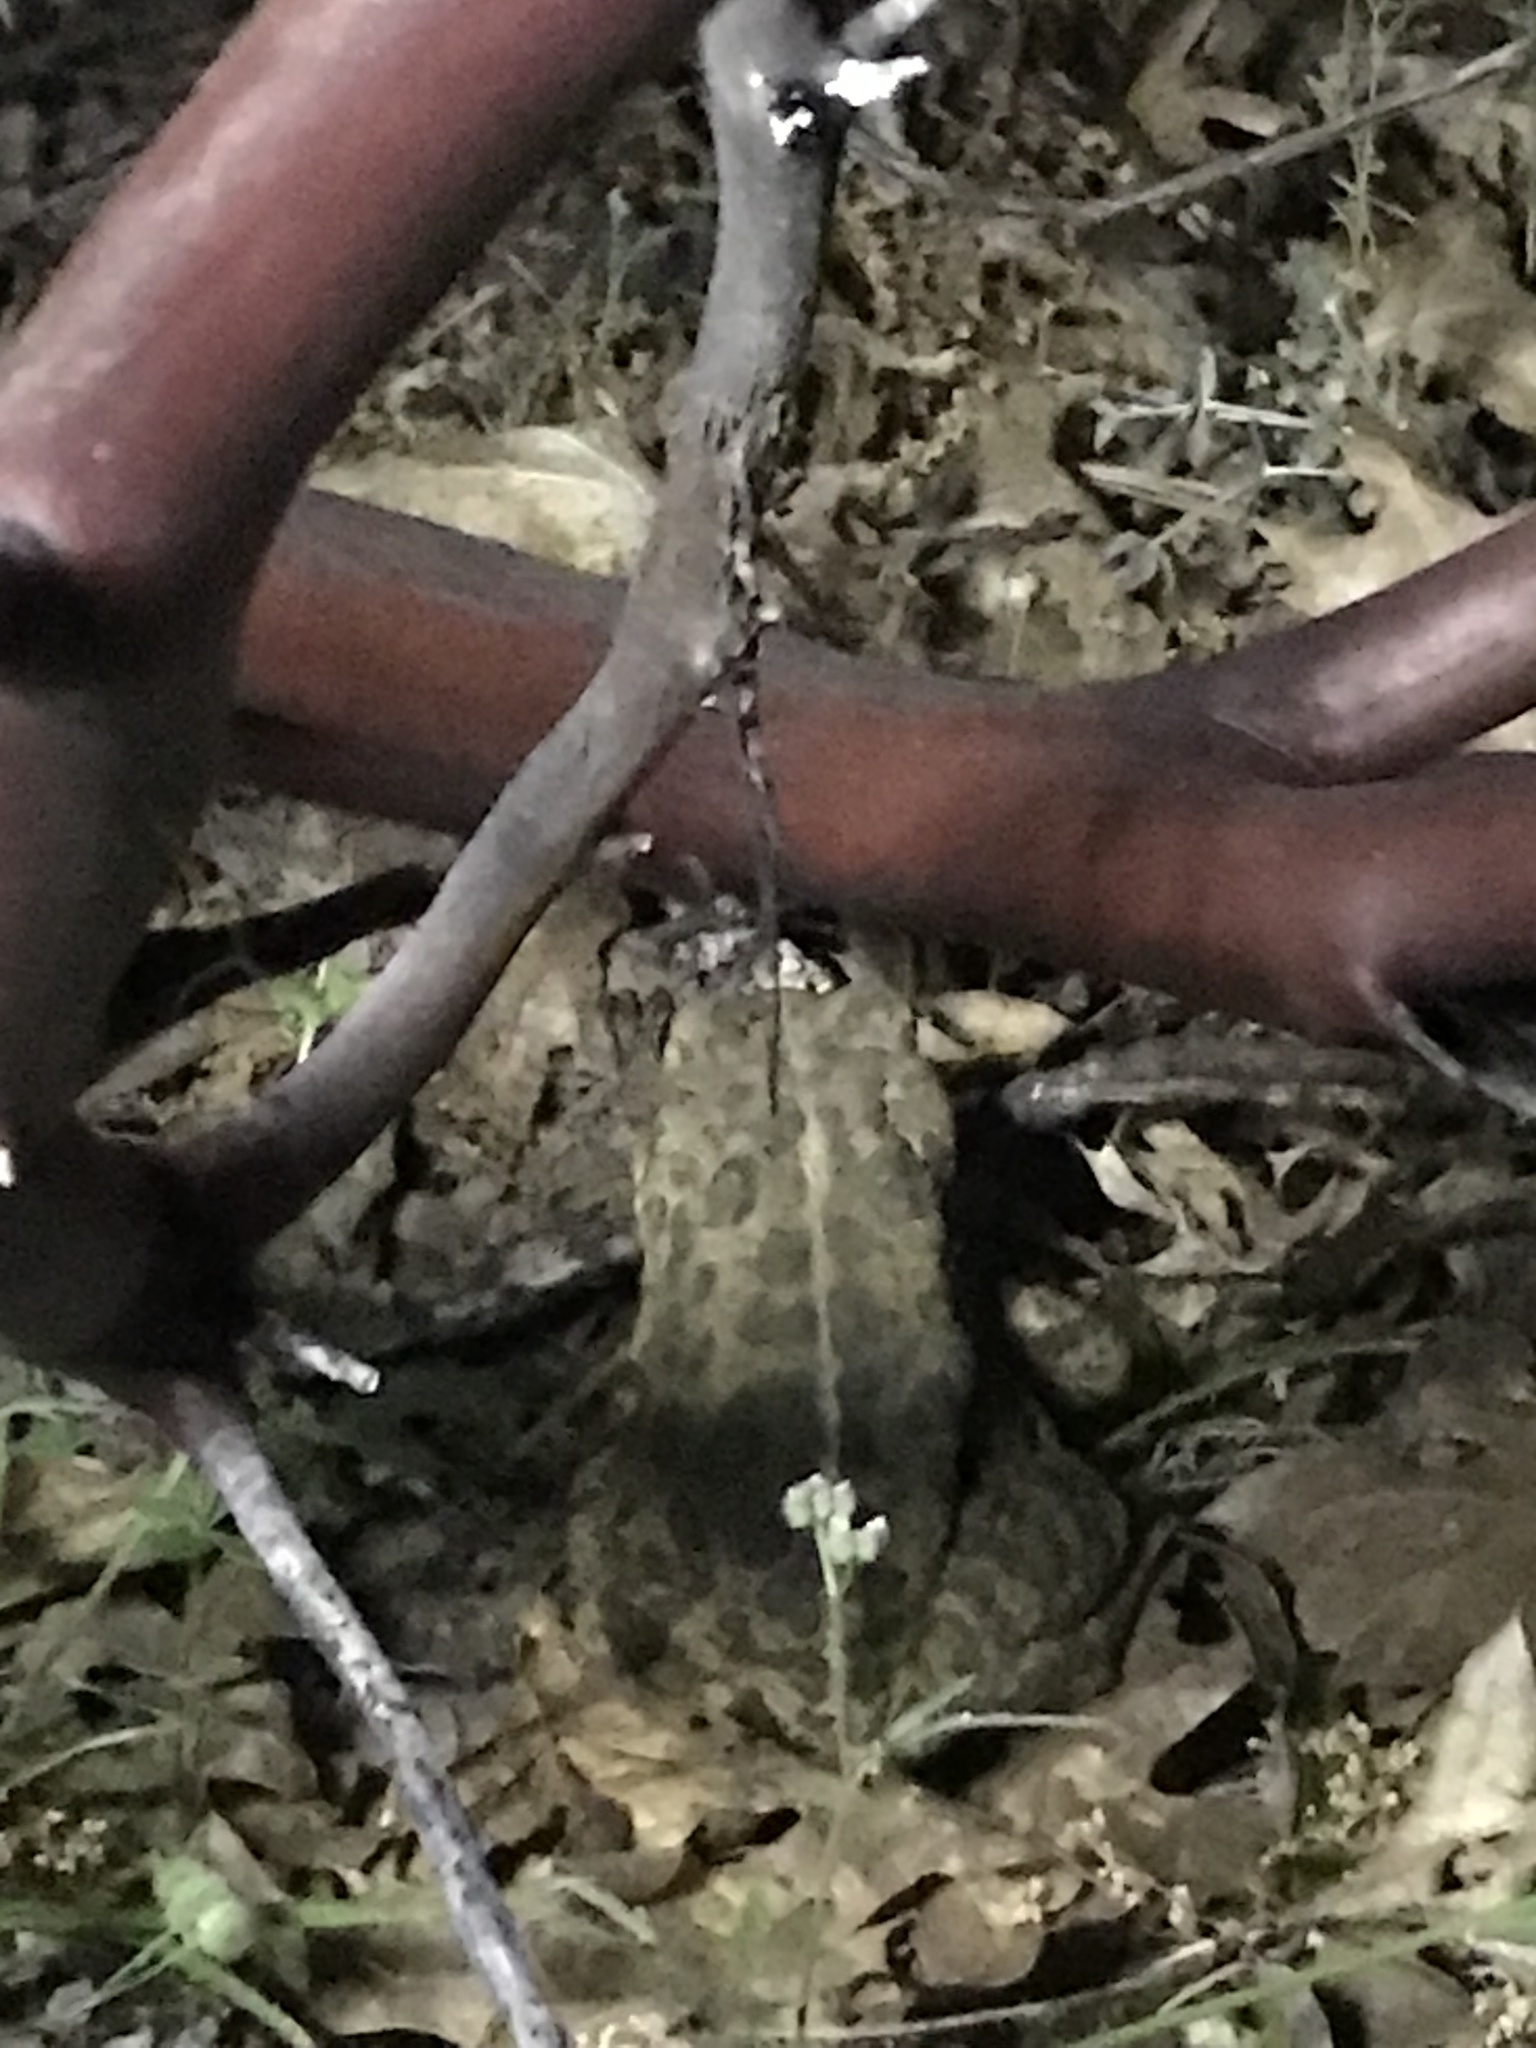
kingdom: Animalia
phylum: Chordata
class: Amphibia
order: Anura
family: Bufonidae
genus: Anaxyrus
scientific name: Anaxyrus boreas
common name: Western toad
